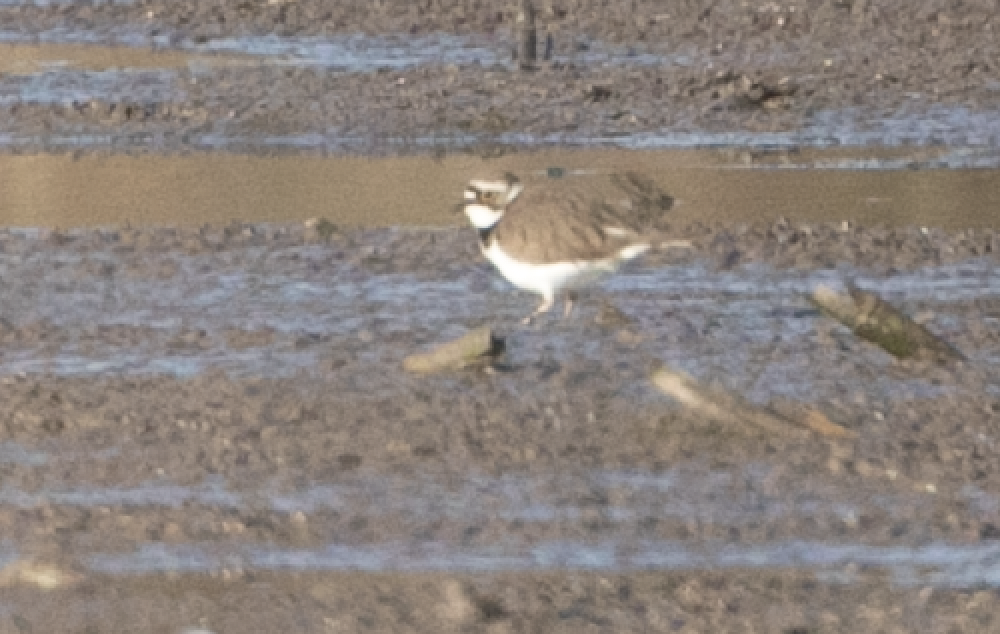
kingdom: Animalia
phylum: Chordata
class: Aves
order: Charadriiformes
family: Charadriidae
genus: Charadrius
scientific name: Charadrius dubius
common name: Little ringed plover
